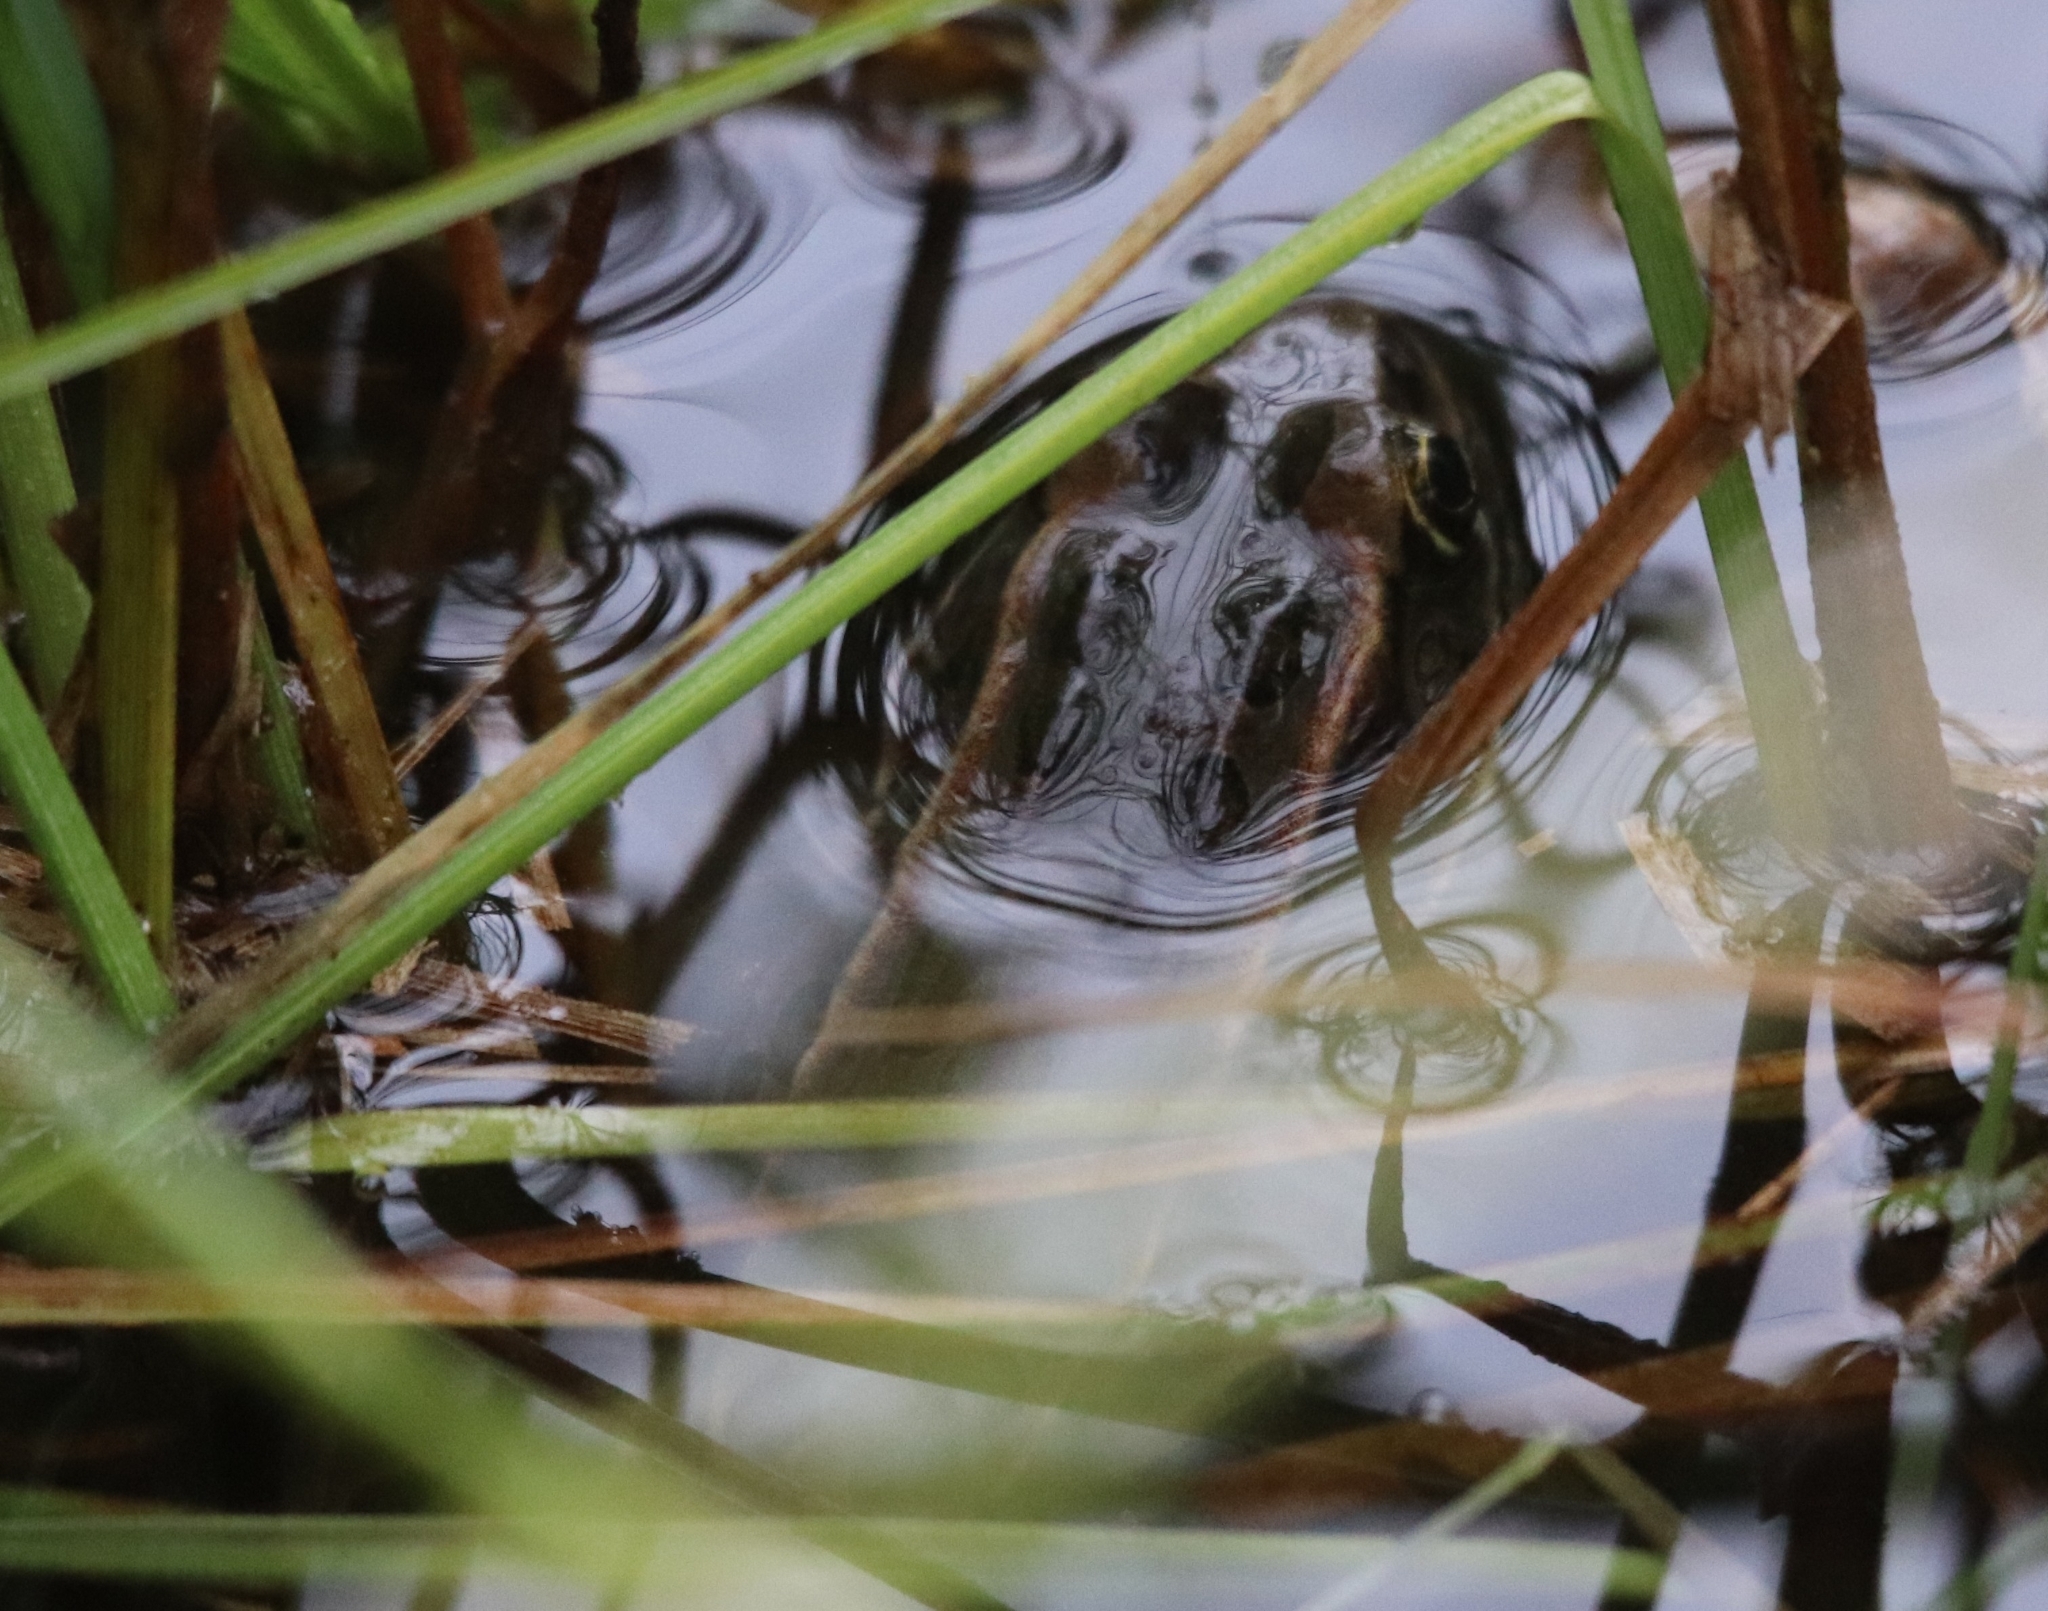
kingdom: Animalia
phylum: Chordata
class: Amphibia
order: Anura
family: Ranidae
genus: Lithobates
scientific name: Lithobates pipiens
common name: Northern leopard frog
